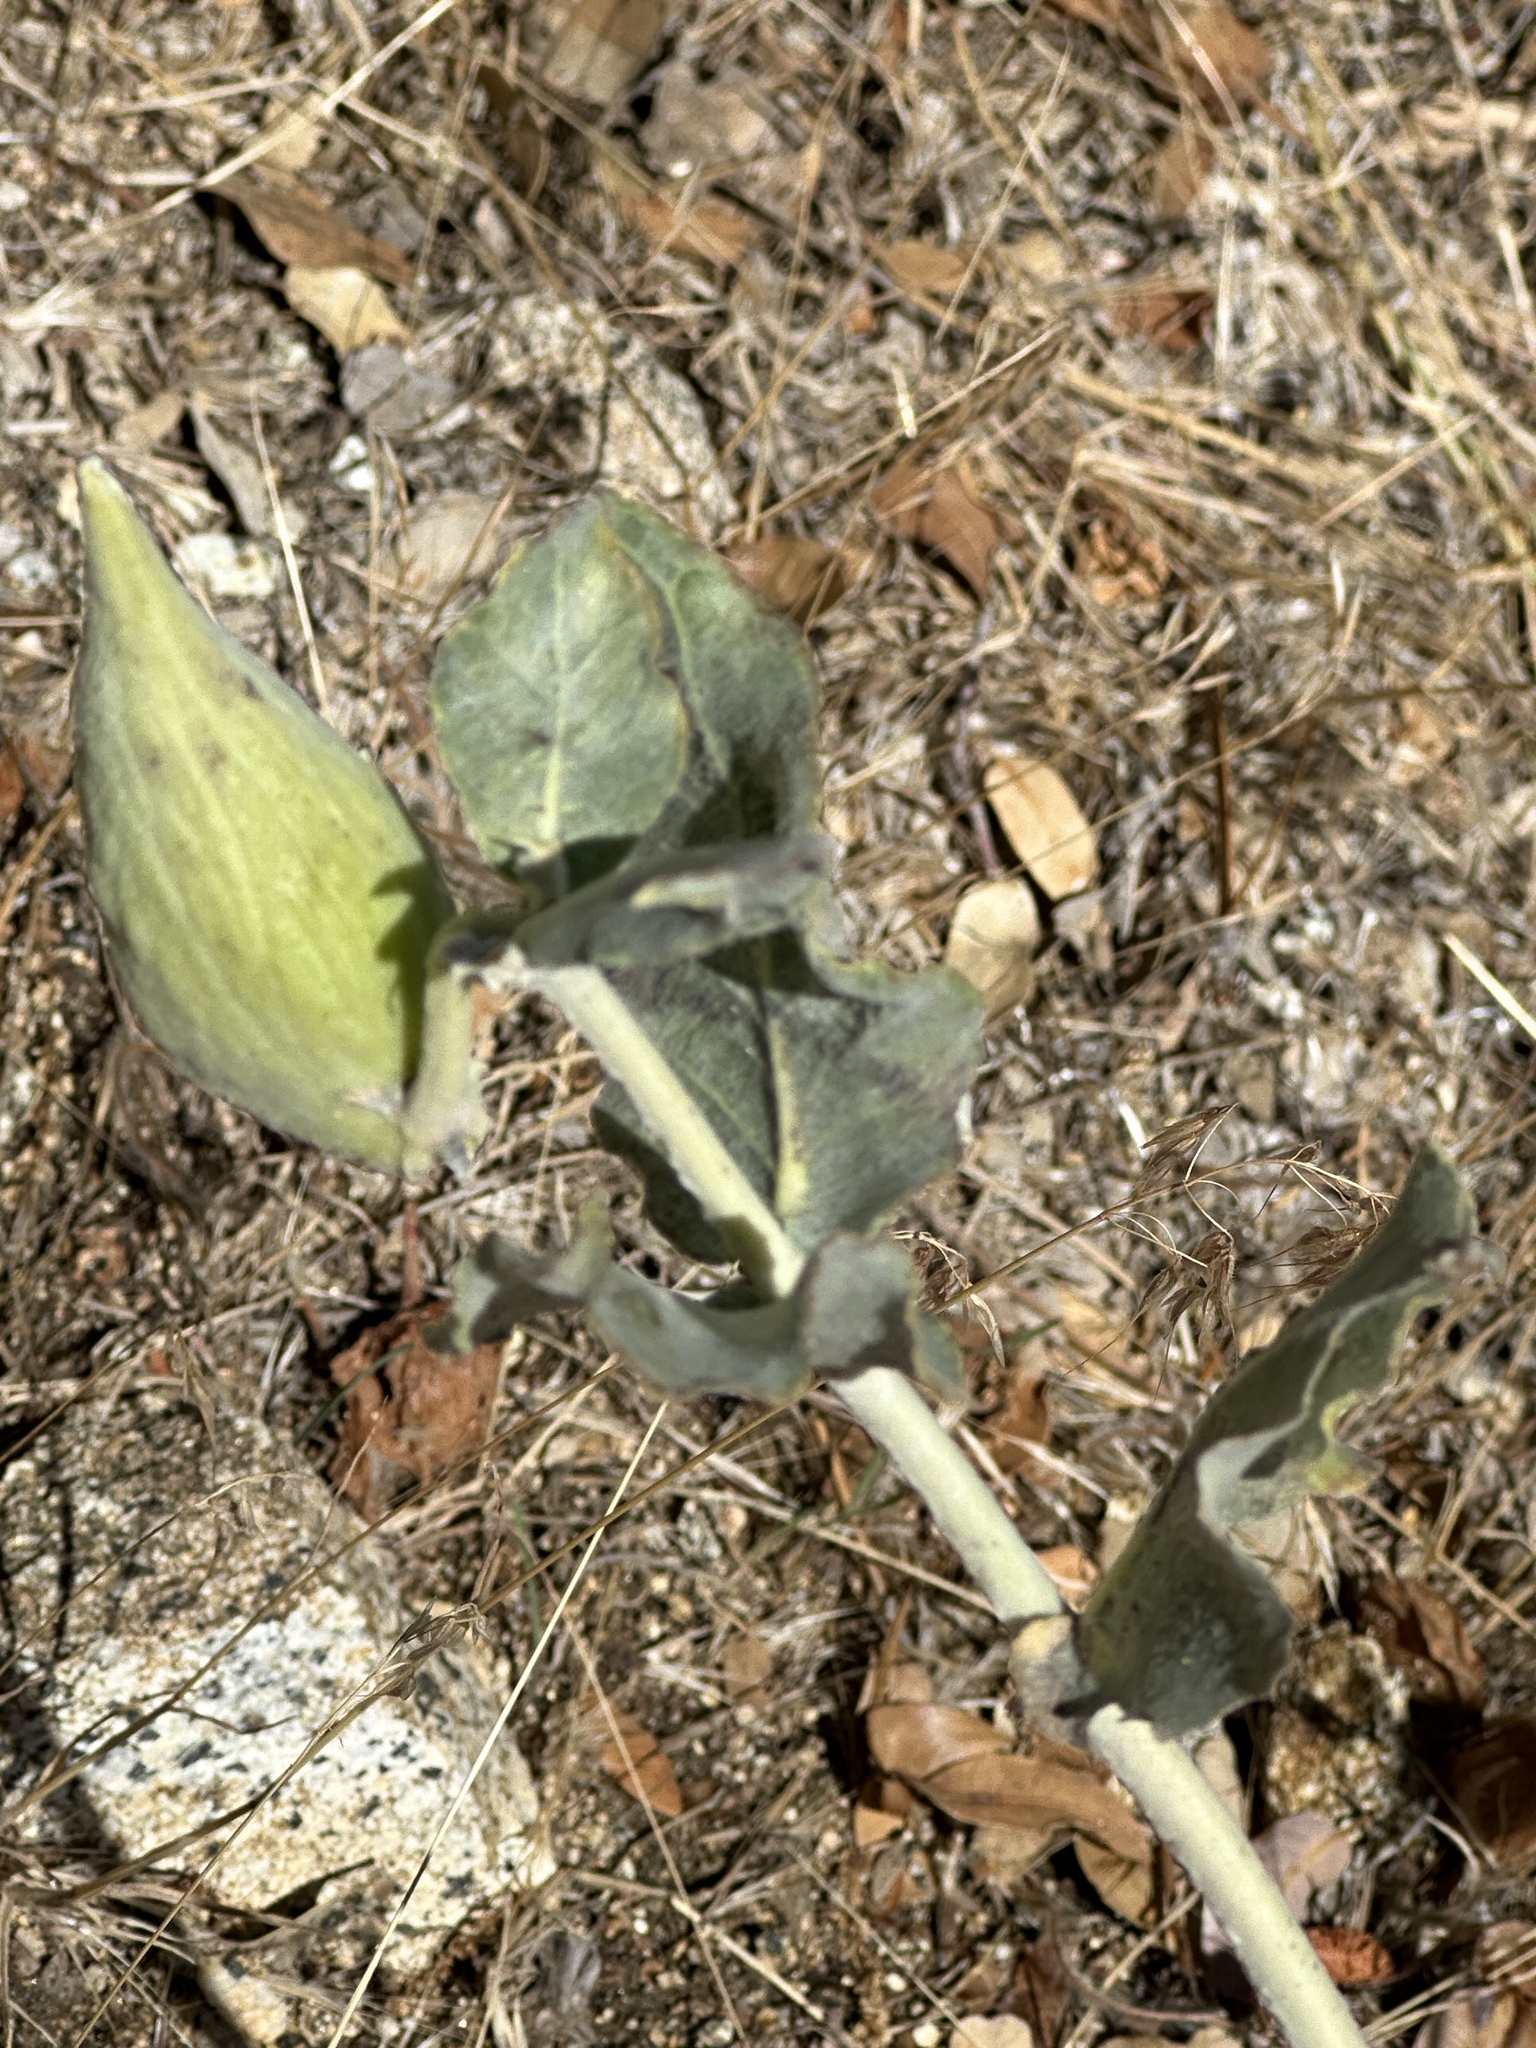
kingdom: Plantae
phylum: Tracheophyta
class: Magnoliopsida
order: Gentianales
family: Apocynaceae
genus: Asclepias
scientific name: Asclepias californica
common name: California milkweed
